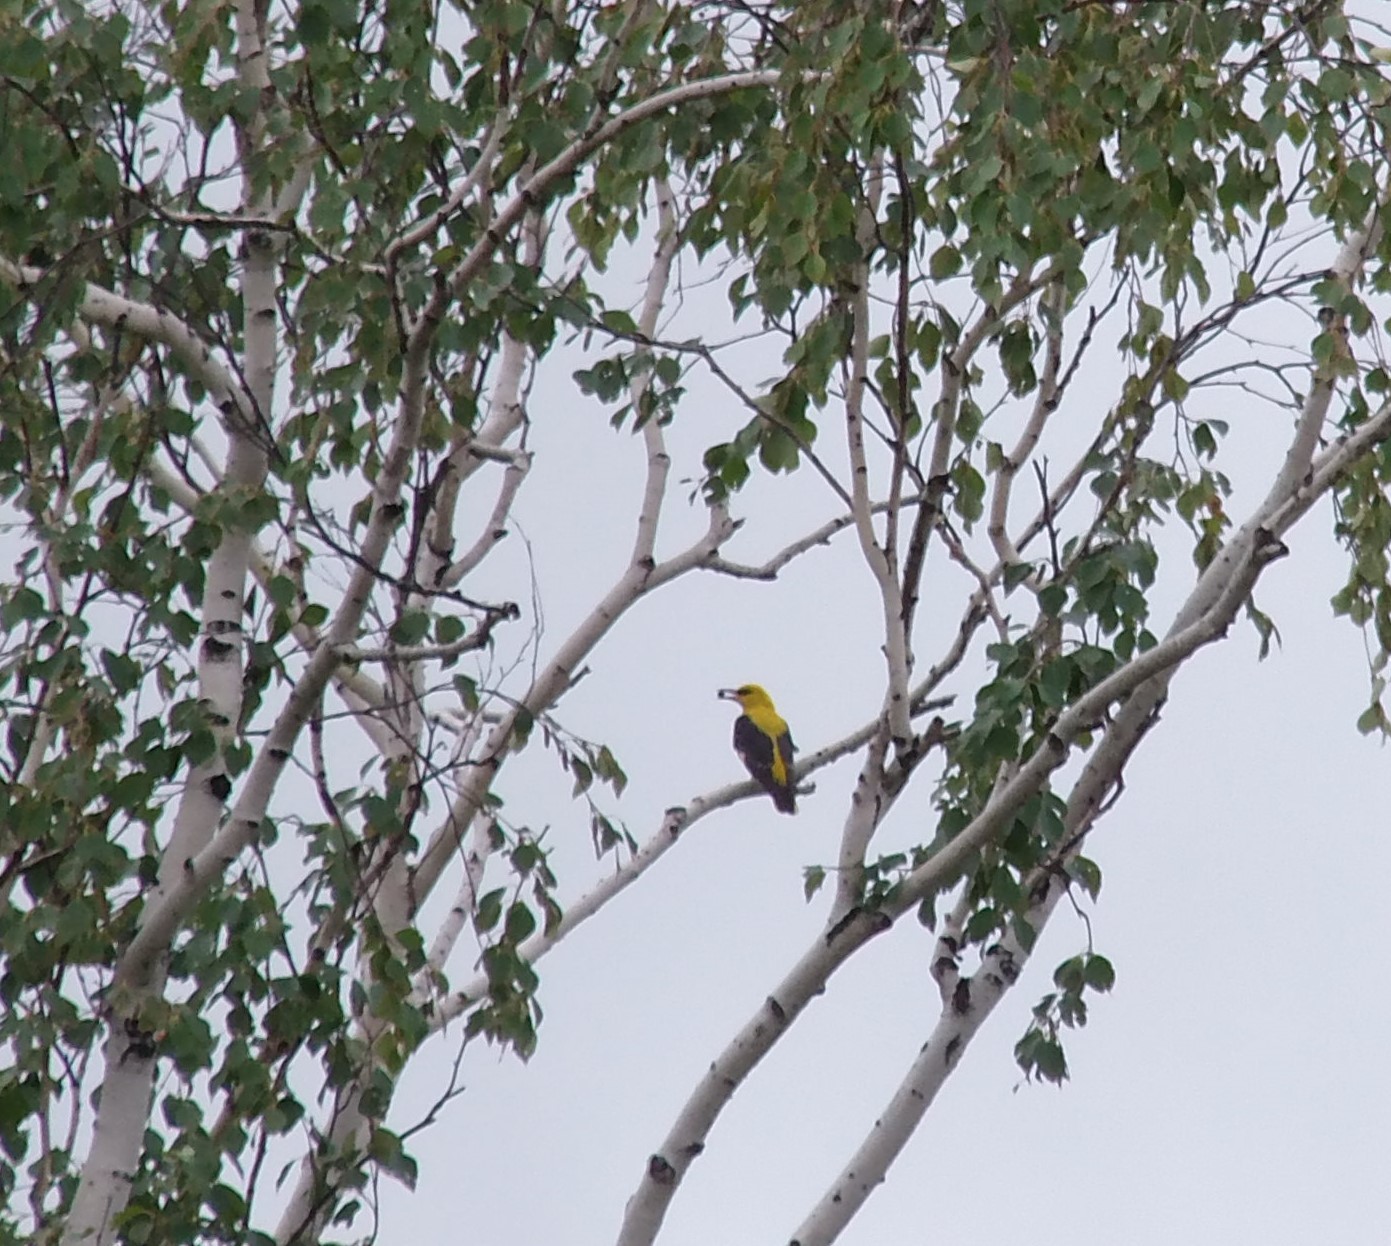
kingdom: Animalia
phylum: Chordata
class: Aves
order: Passeriformes
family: Oriolidae
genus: Oriolus
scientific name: Oriolus oriolus
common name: Eurasian golden oriole
